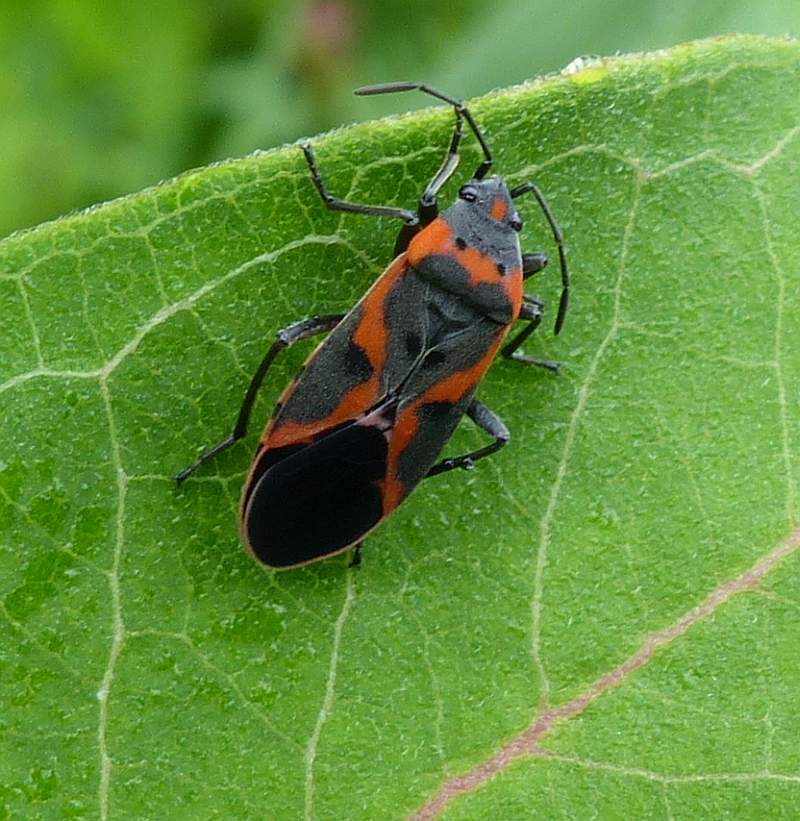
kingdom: Animalia
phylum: Arthropoda
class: Insecta
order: Hemiptera
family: Lygaeidae
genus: Lygaeus
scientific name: Lygaeus kalmii
